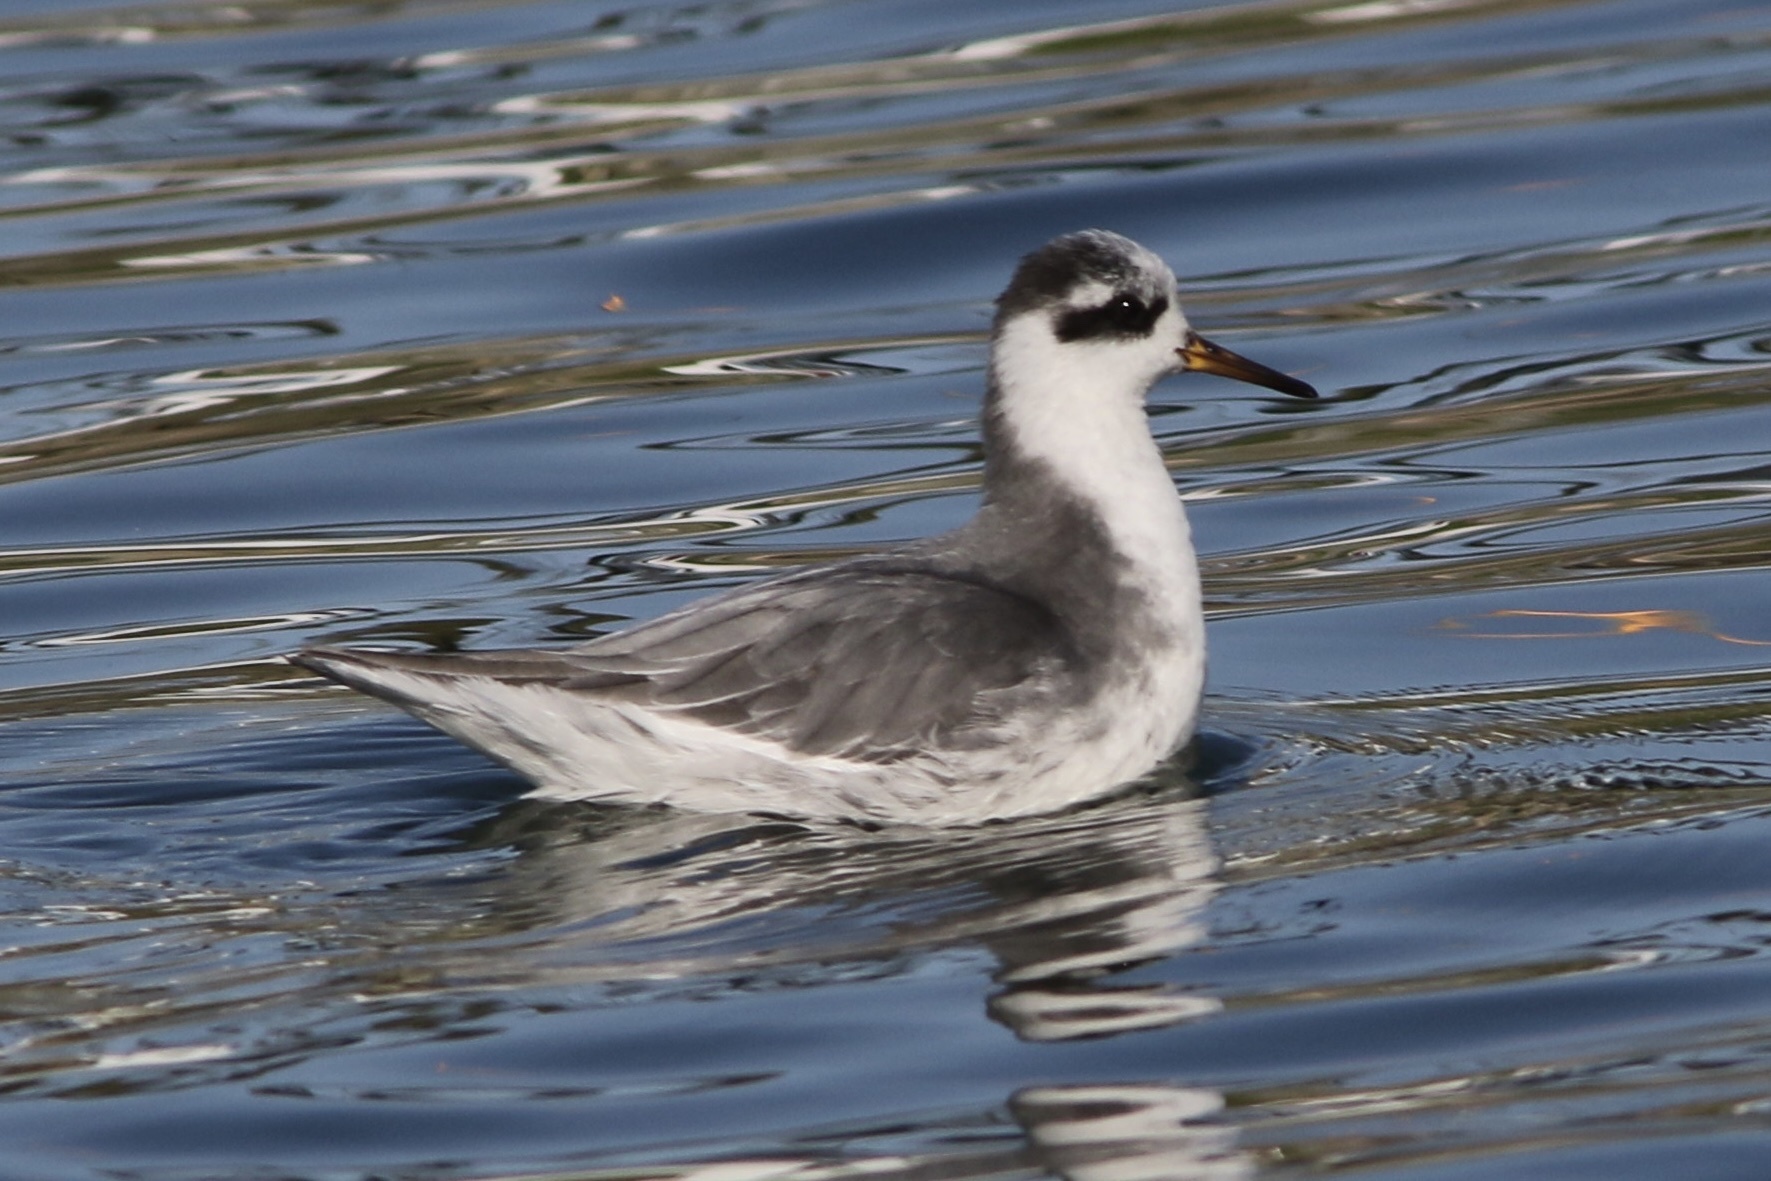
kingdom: Animalia
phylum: Chordata
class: Aves
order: Charadriiformes
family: Scolopacidae
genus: Phalaropus
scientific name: Phalaropus fulicarius
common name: Red phalarope
